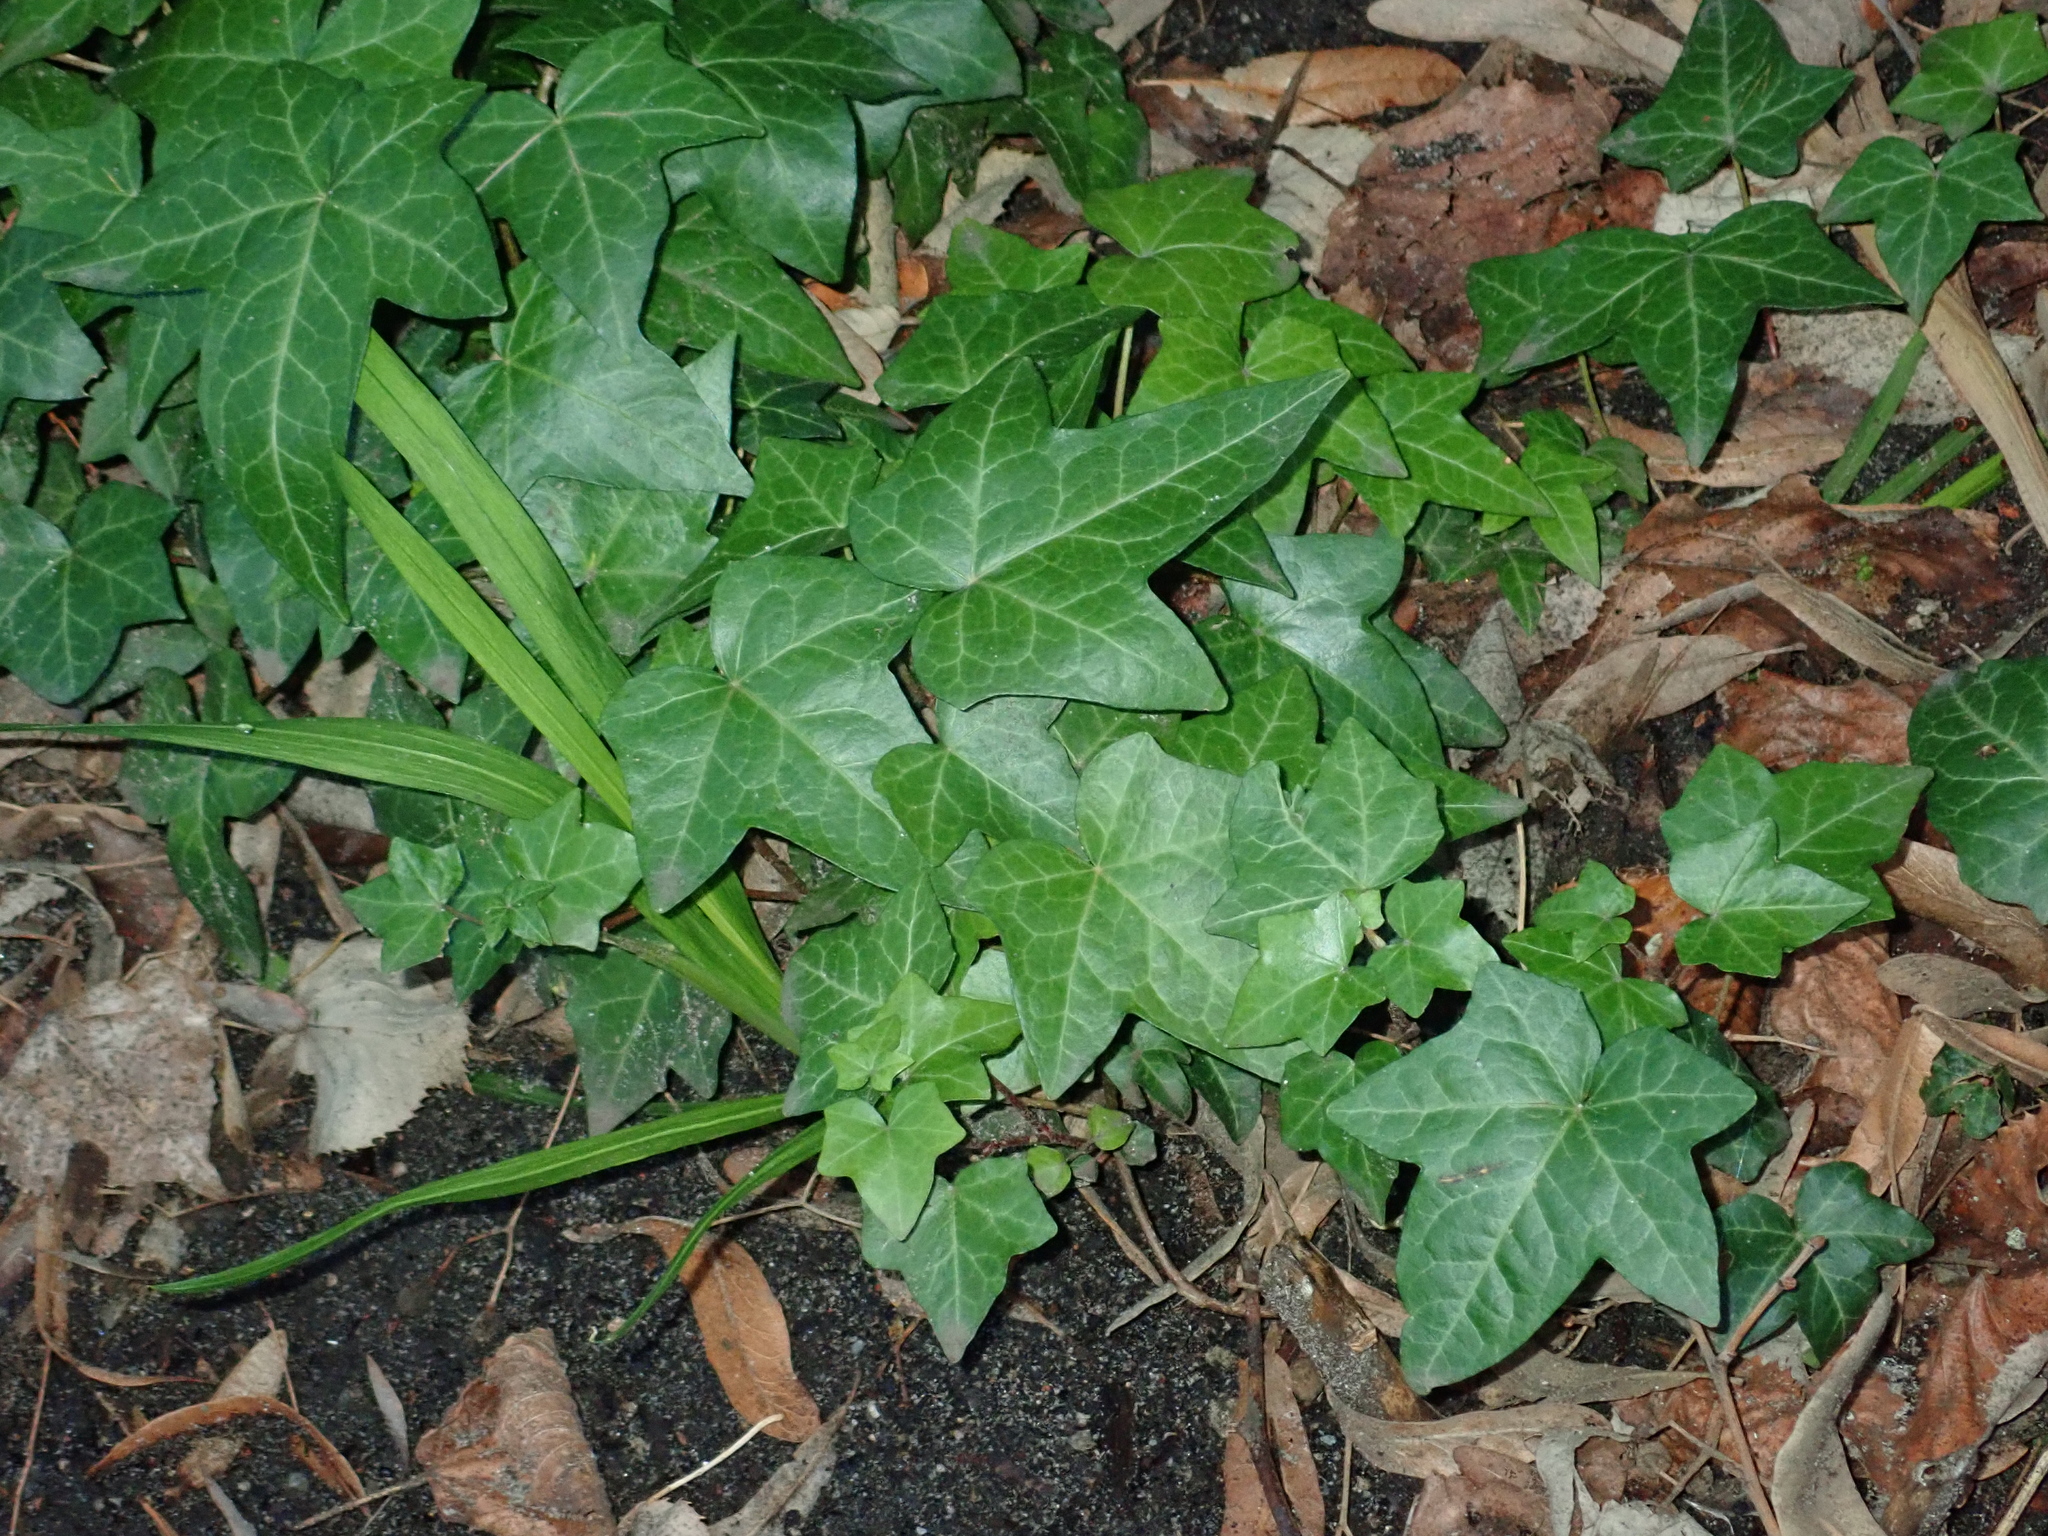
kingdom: Plantae
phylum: Tracheophyta
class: Magnoliopsida
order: Apiales
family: Araliaceae
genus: Hedera
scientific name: Hedera helix
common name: Ivy
